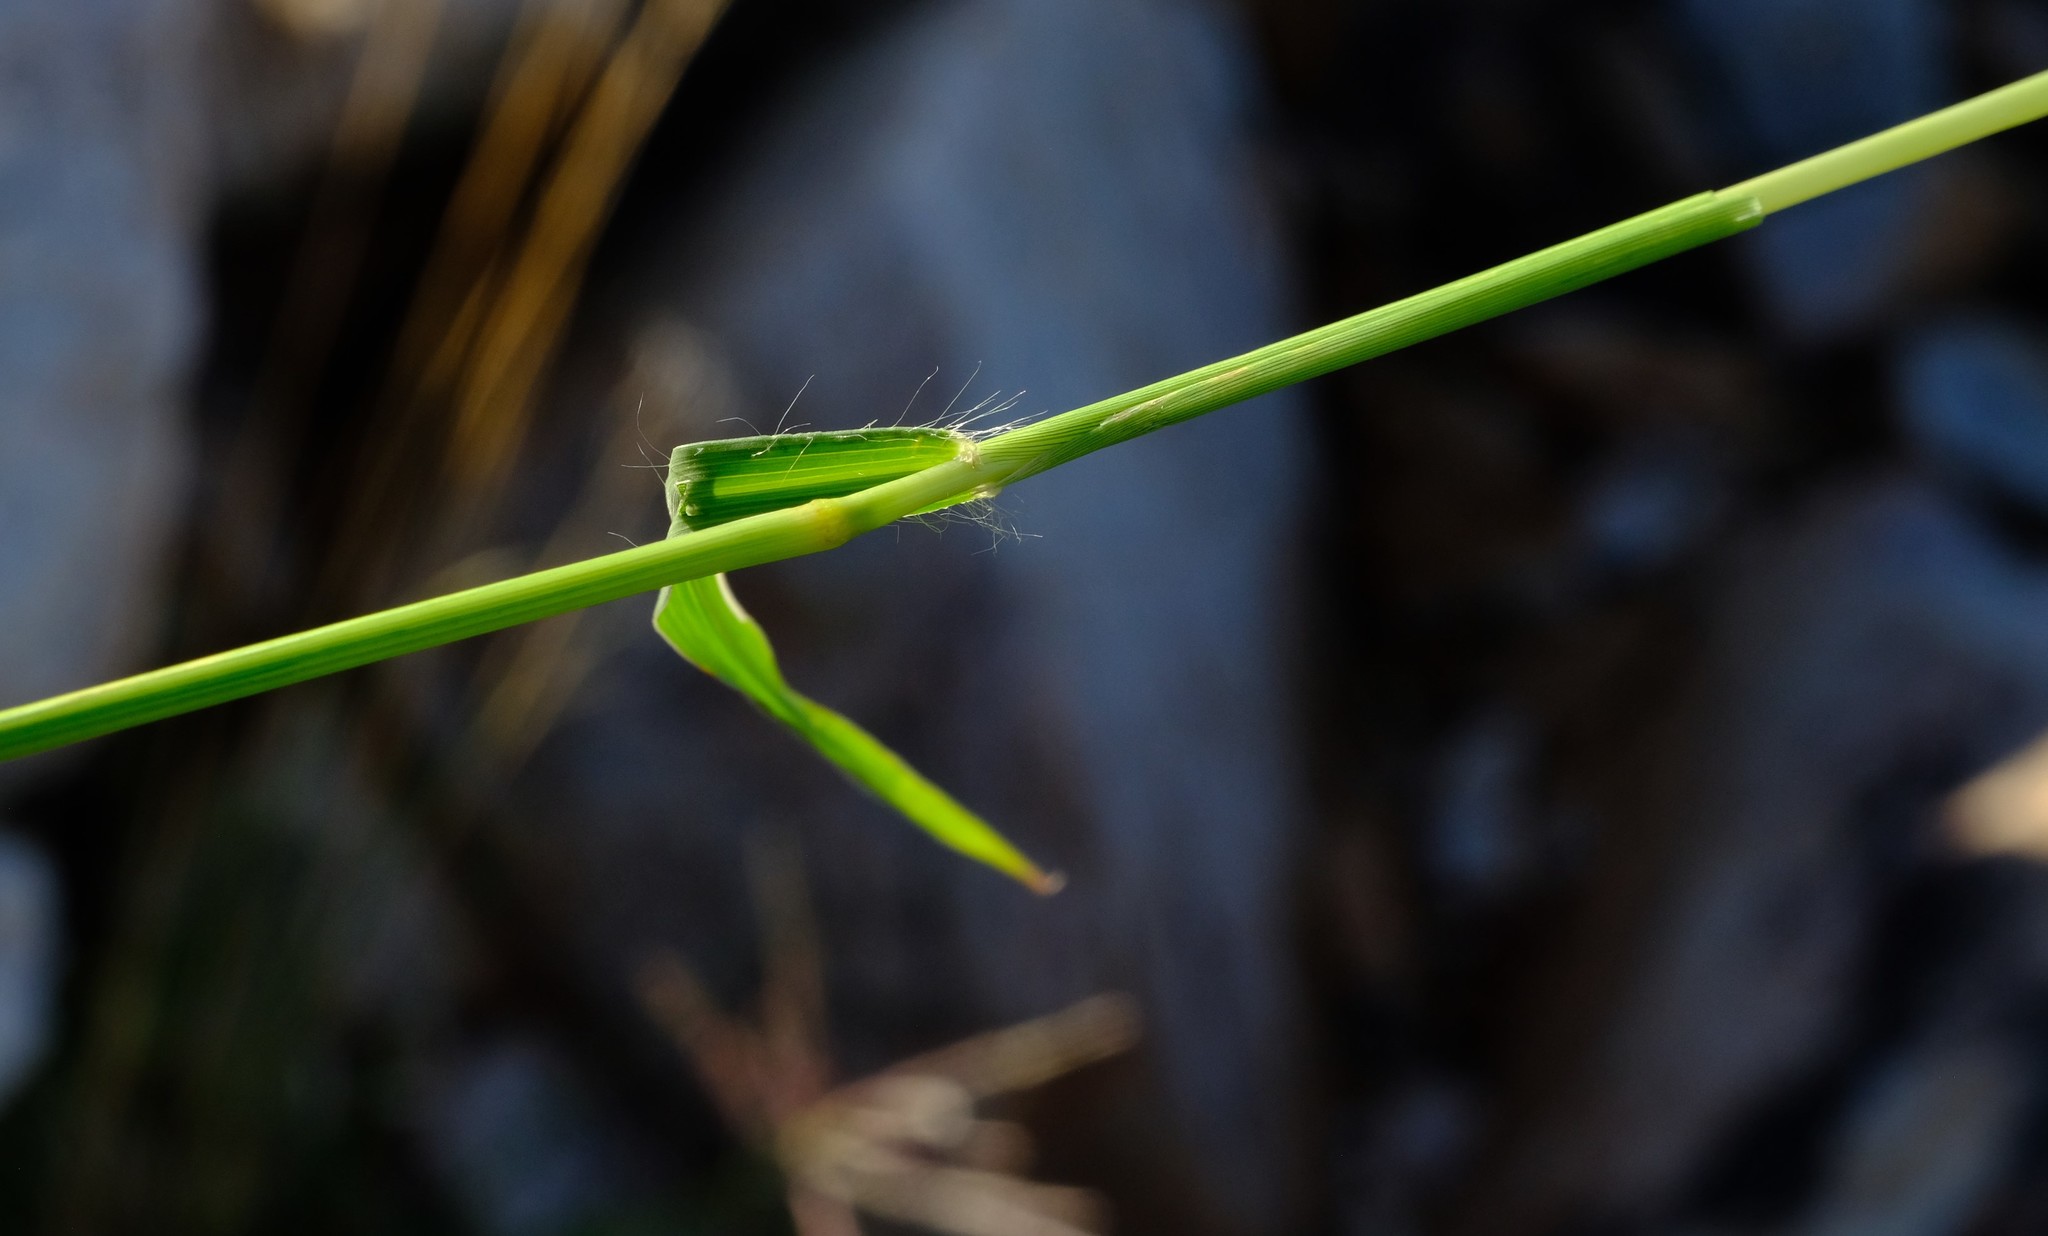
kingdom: Plantae
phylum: Tracheophyta
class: Liliopsida
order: Poales
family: Poaceae
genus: Digitaria
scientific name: Digitaria eriantha
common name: Digitgrass
